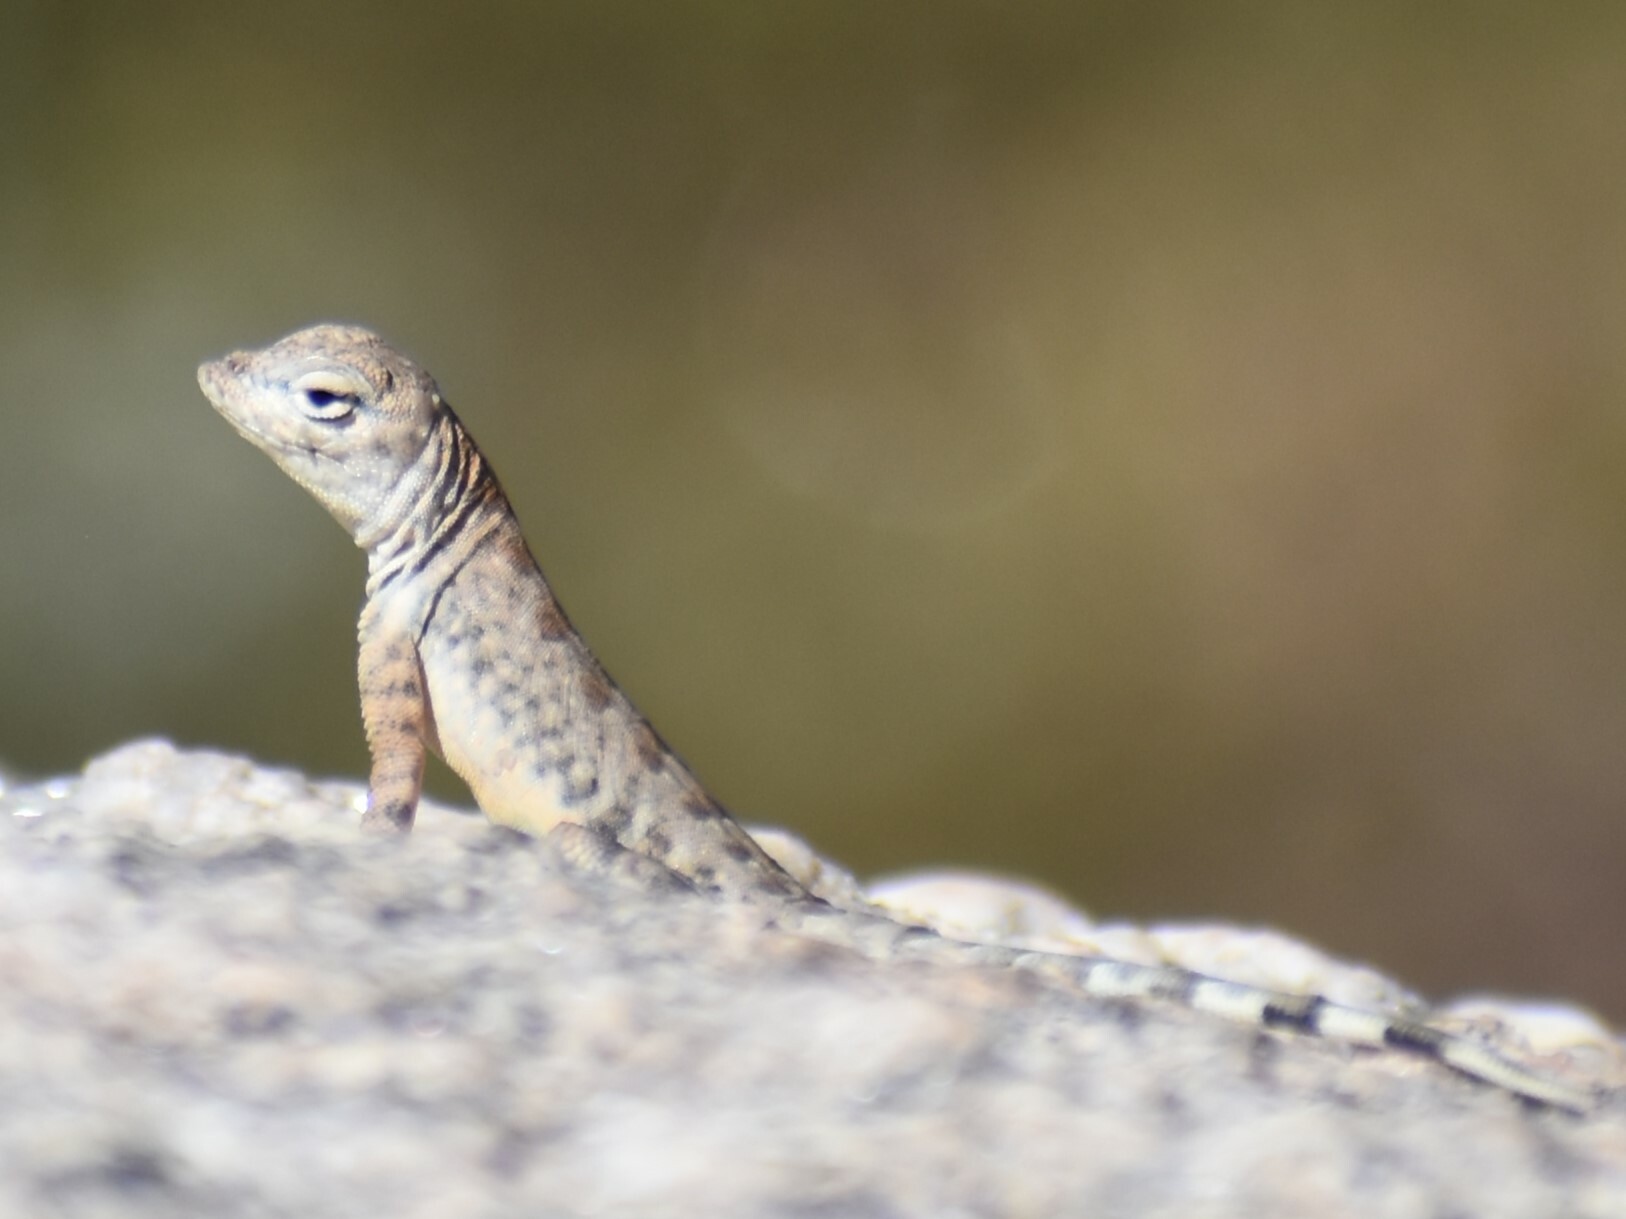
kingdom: Animalia
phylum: Chordata
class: Squamata
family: Phrynosomatidae
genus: Cophosaurus
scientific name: Cophosaurus texanus
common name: Greater earless lizard
